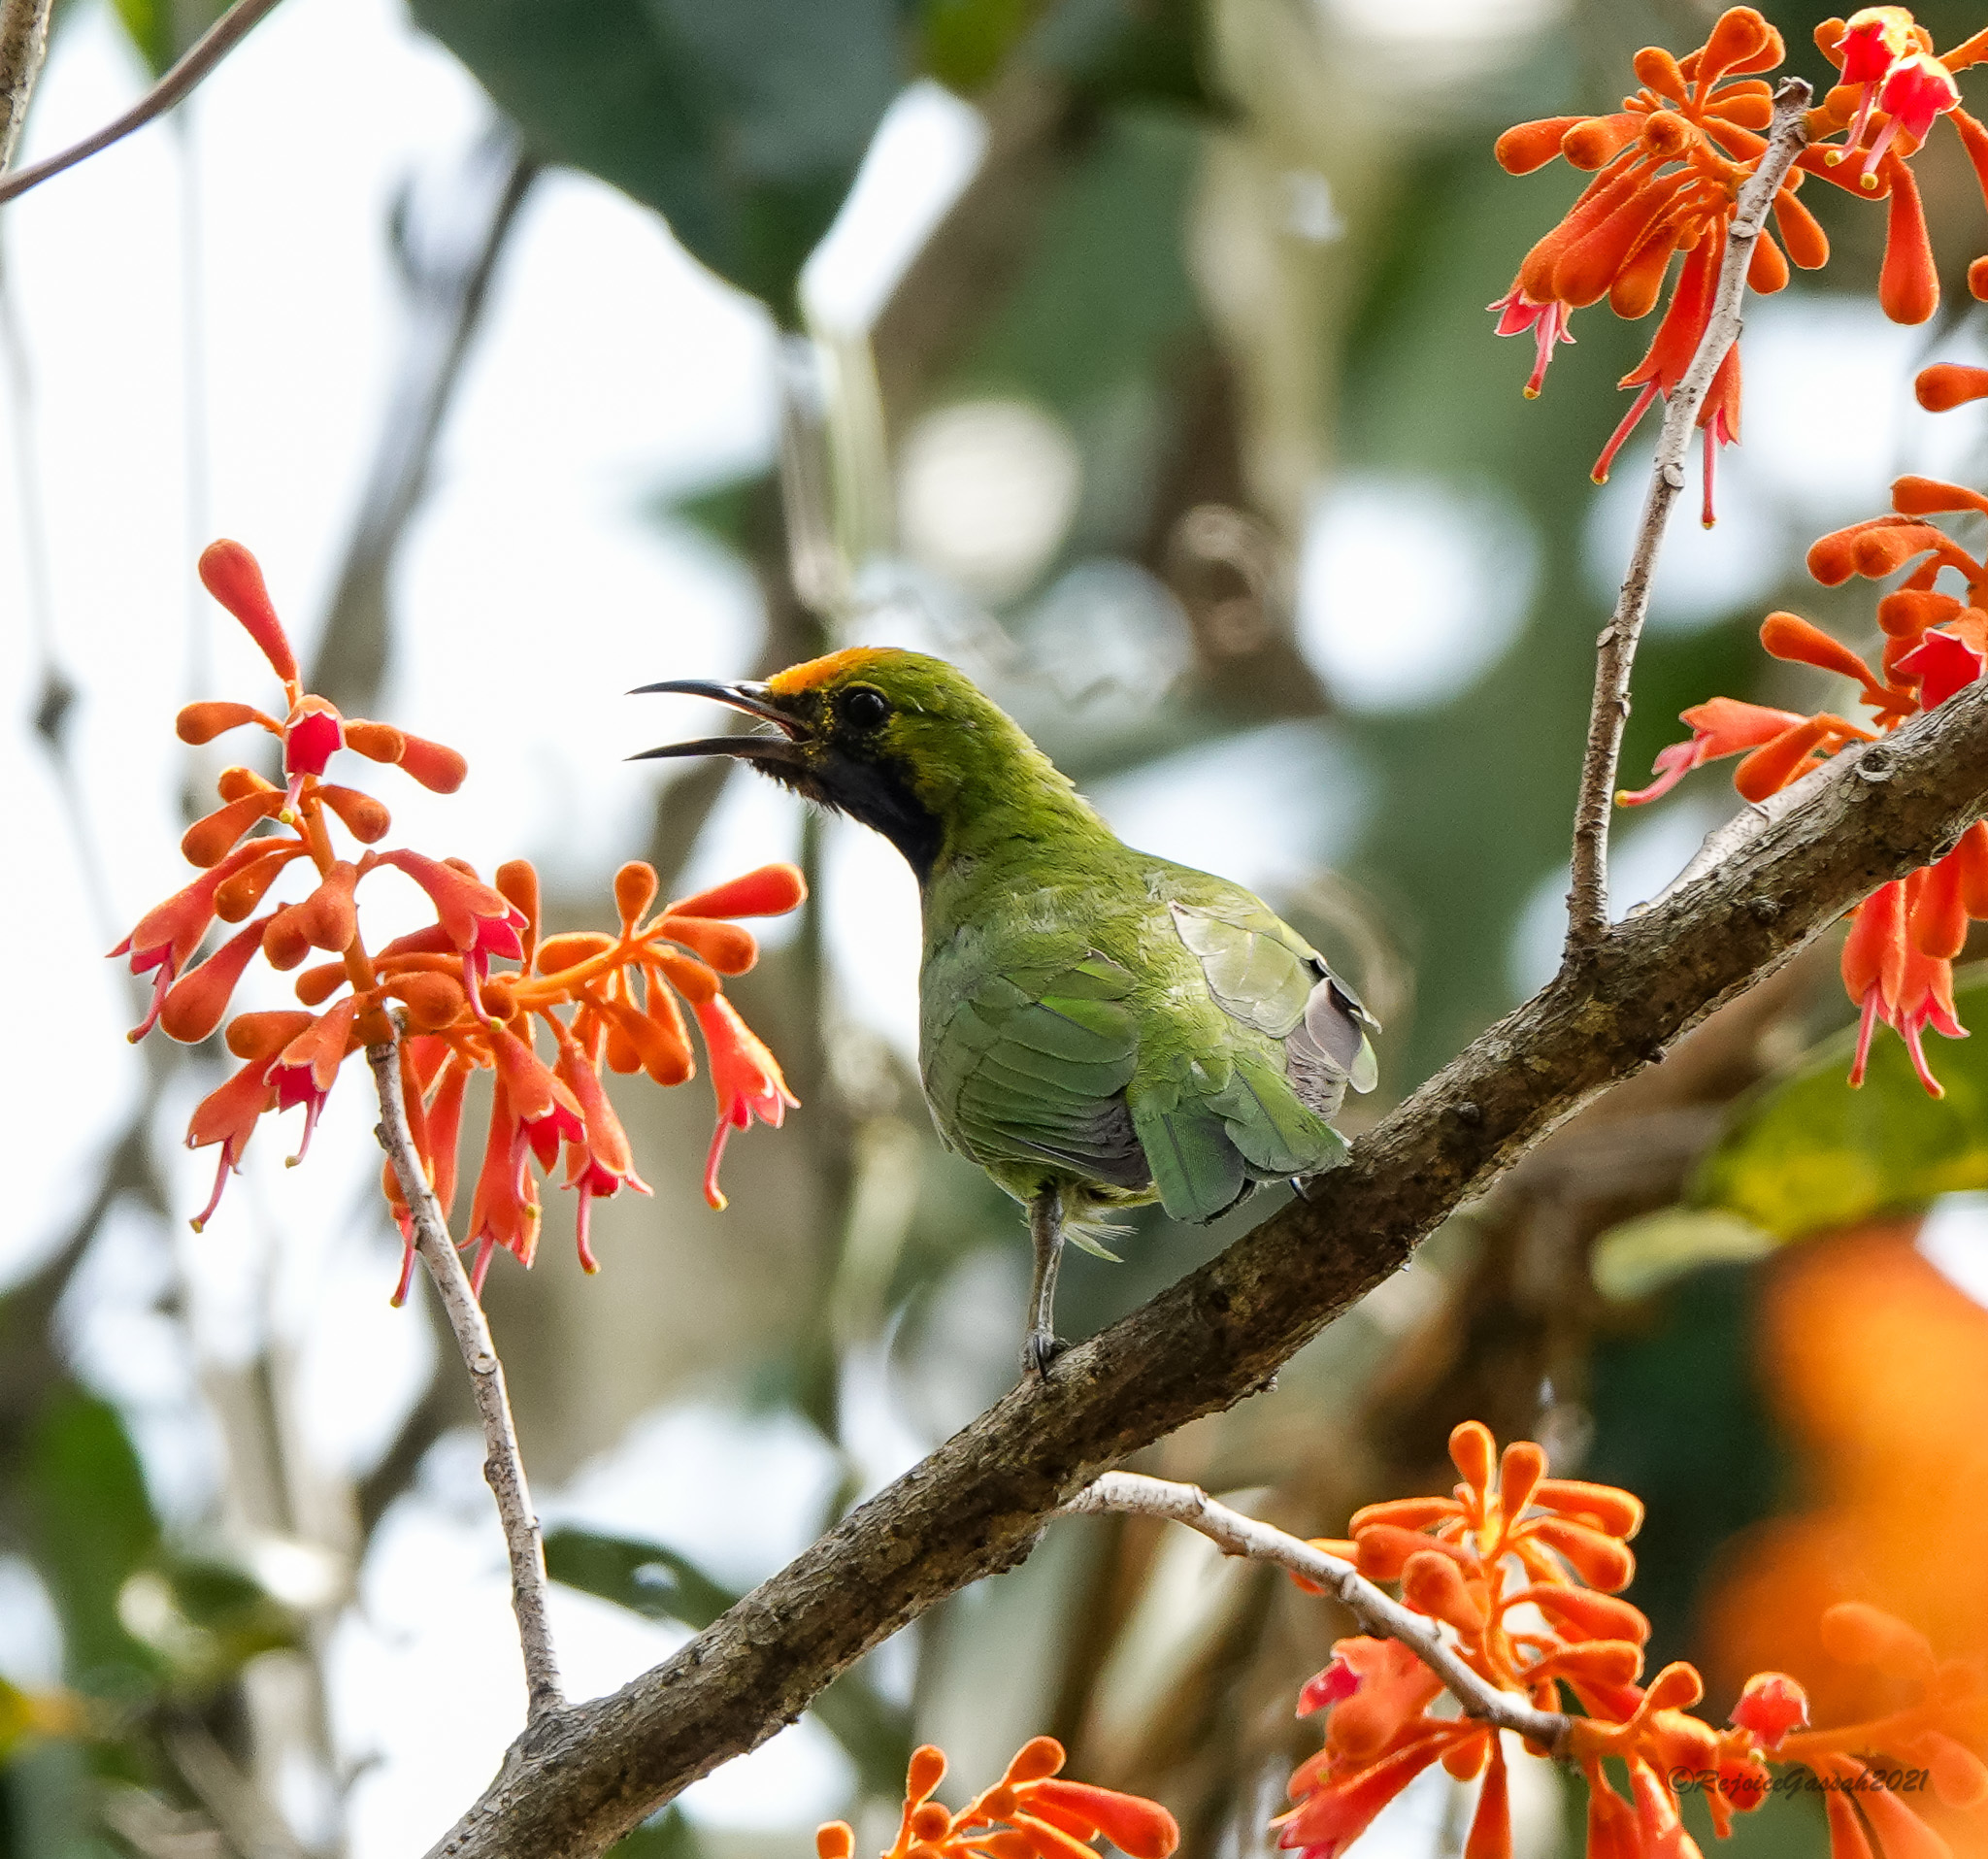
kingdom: Animalia
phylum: Chordata
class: Aves
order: Passeriformes
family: Chloropseidae
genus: Chloropsis
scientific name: Chloropsis aurifrons
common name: Golden-fronted leafbird
